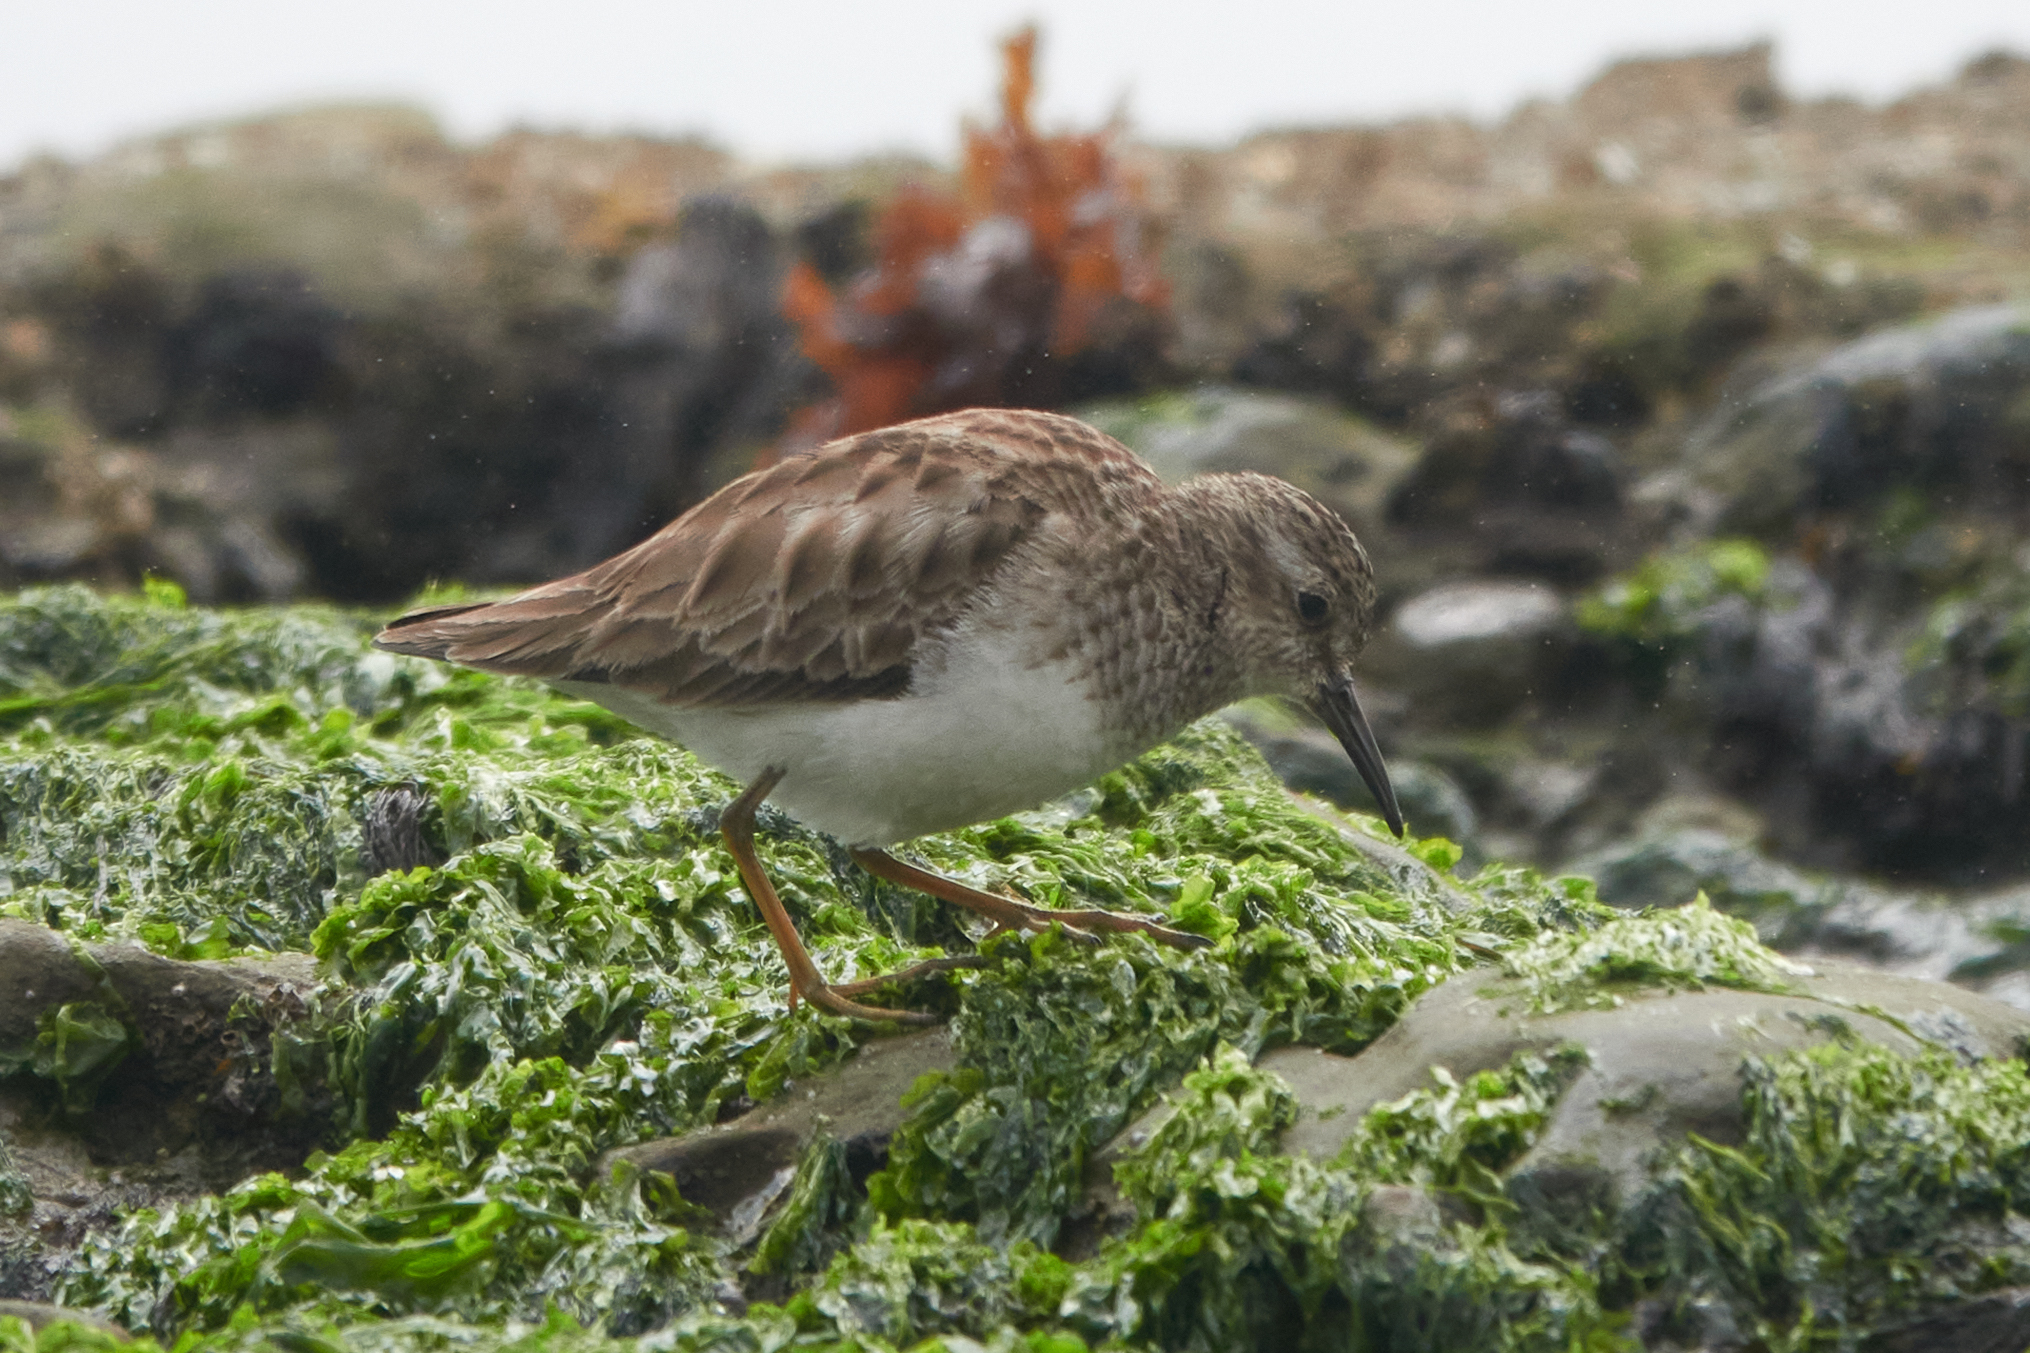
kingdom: Animalia
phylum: Chordata
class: Aves
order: Charadriiformes
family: Scolopacidae
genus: Calidris
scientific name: Calidris minutilla
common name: Least sandpiper
